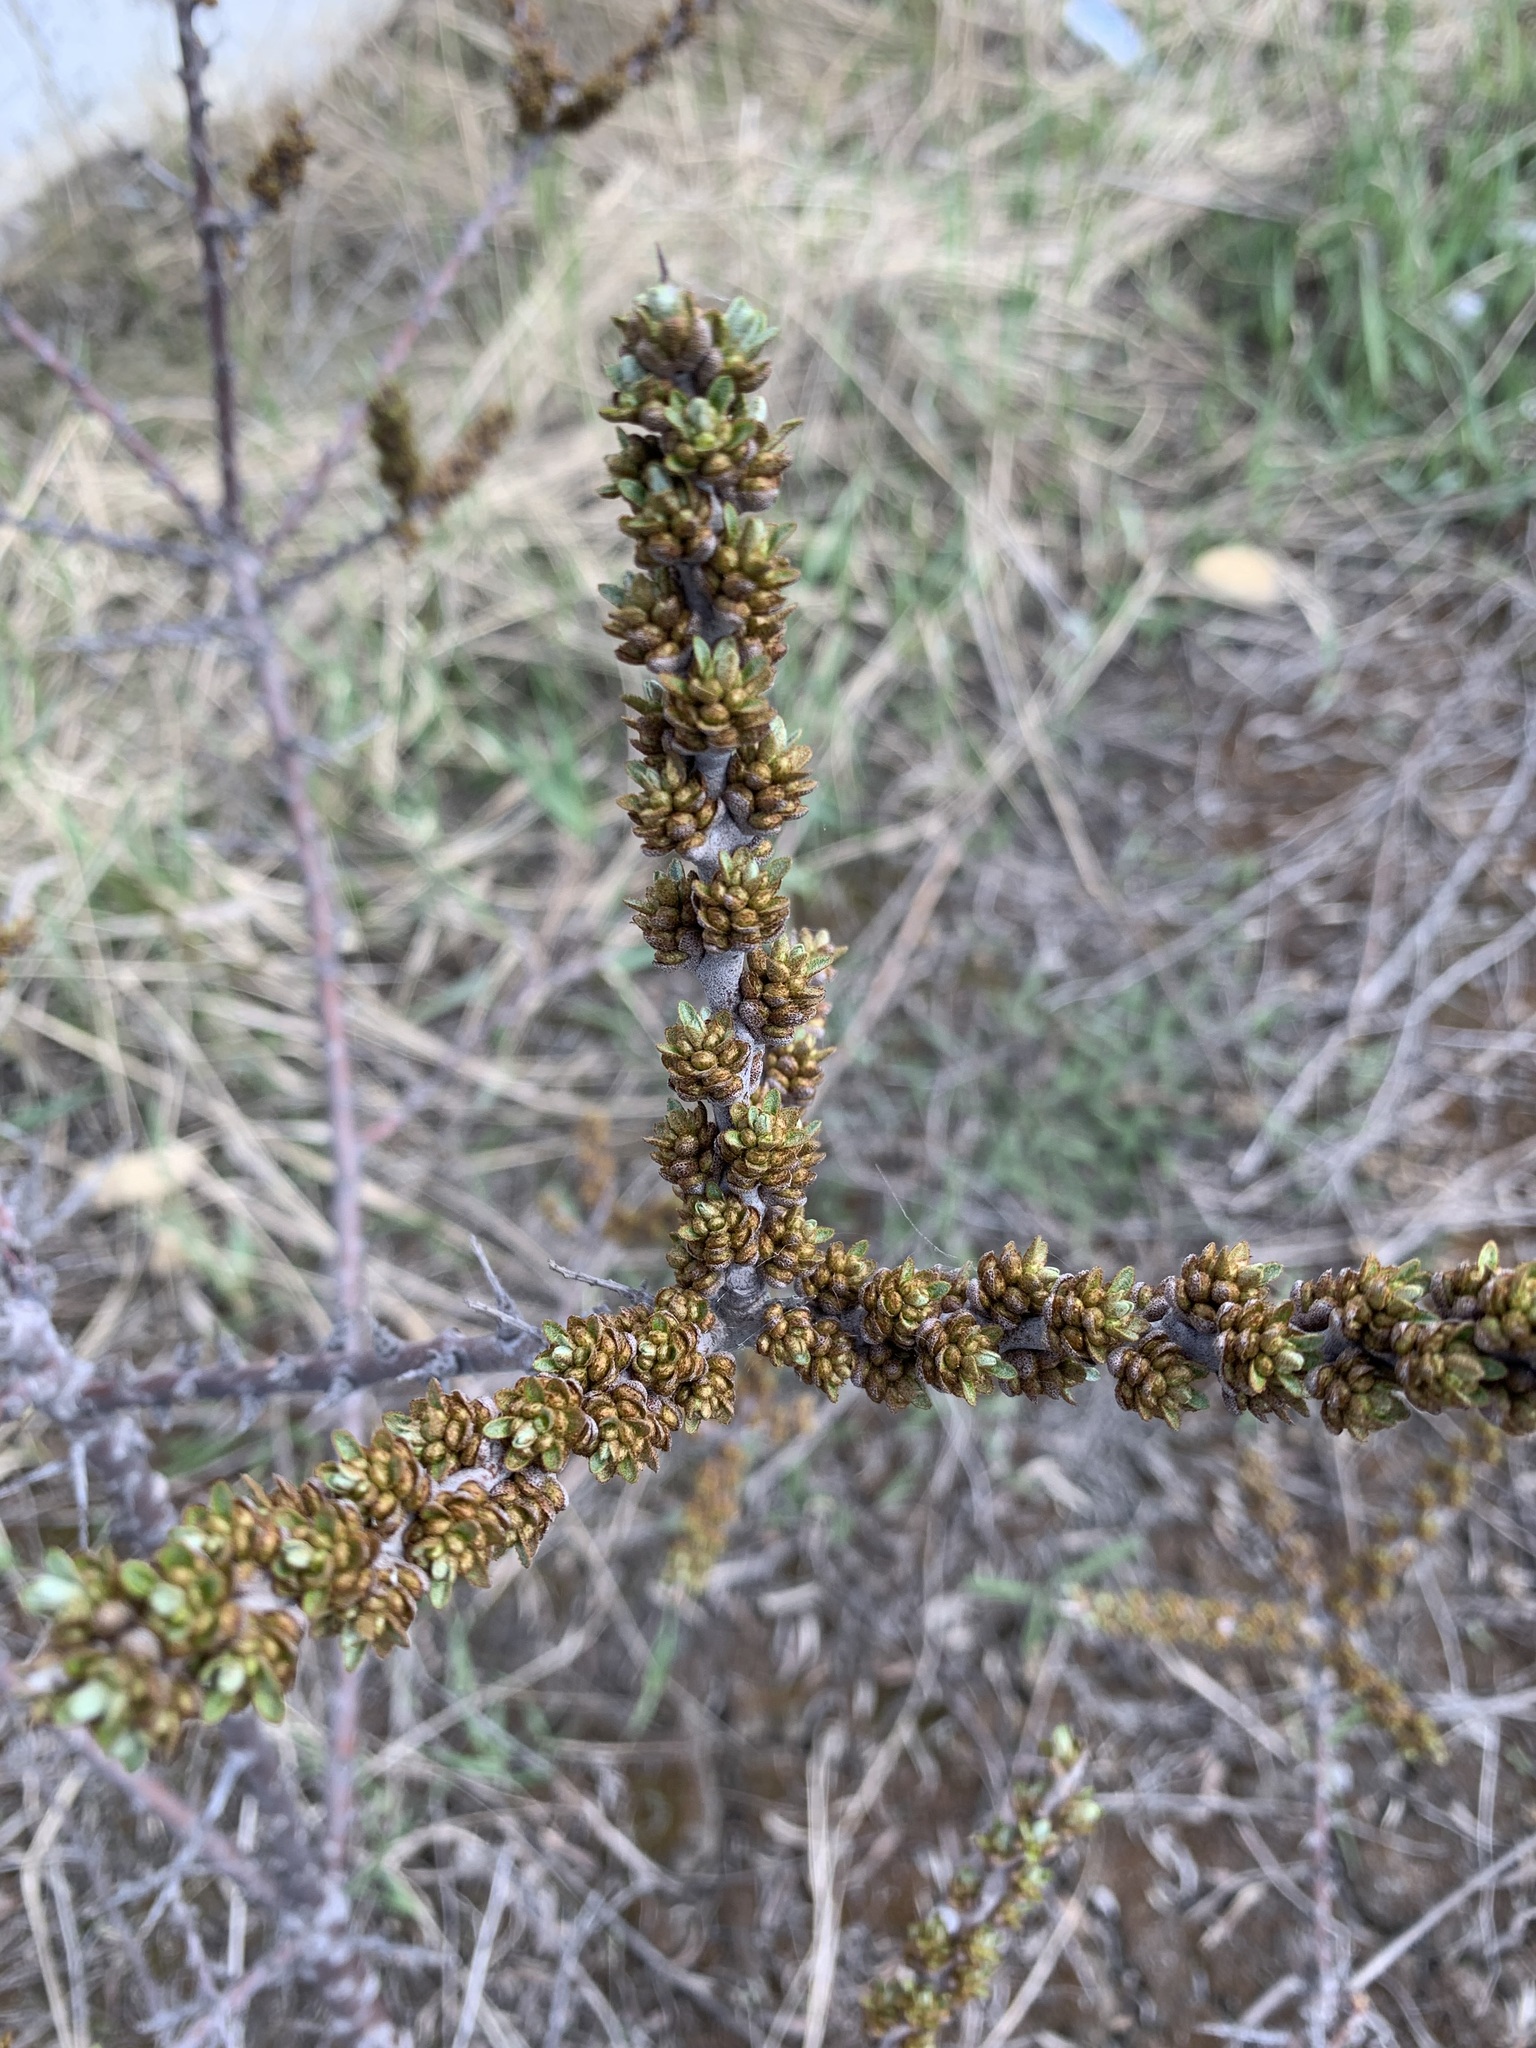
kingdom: Plantae
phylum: Tracheophyta
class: Magnoliopsida
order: Rosales
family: Elaeagnaceae
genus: Hippophae
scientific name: Hippophae rhamnoides
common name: Sea-buckthorn
